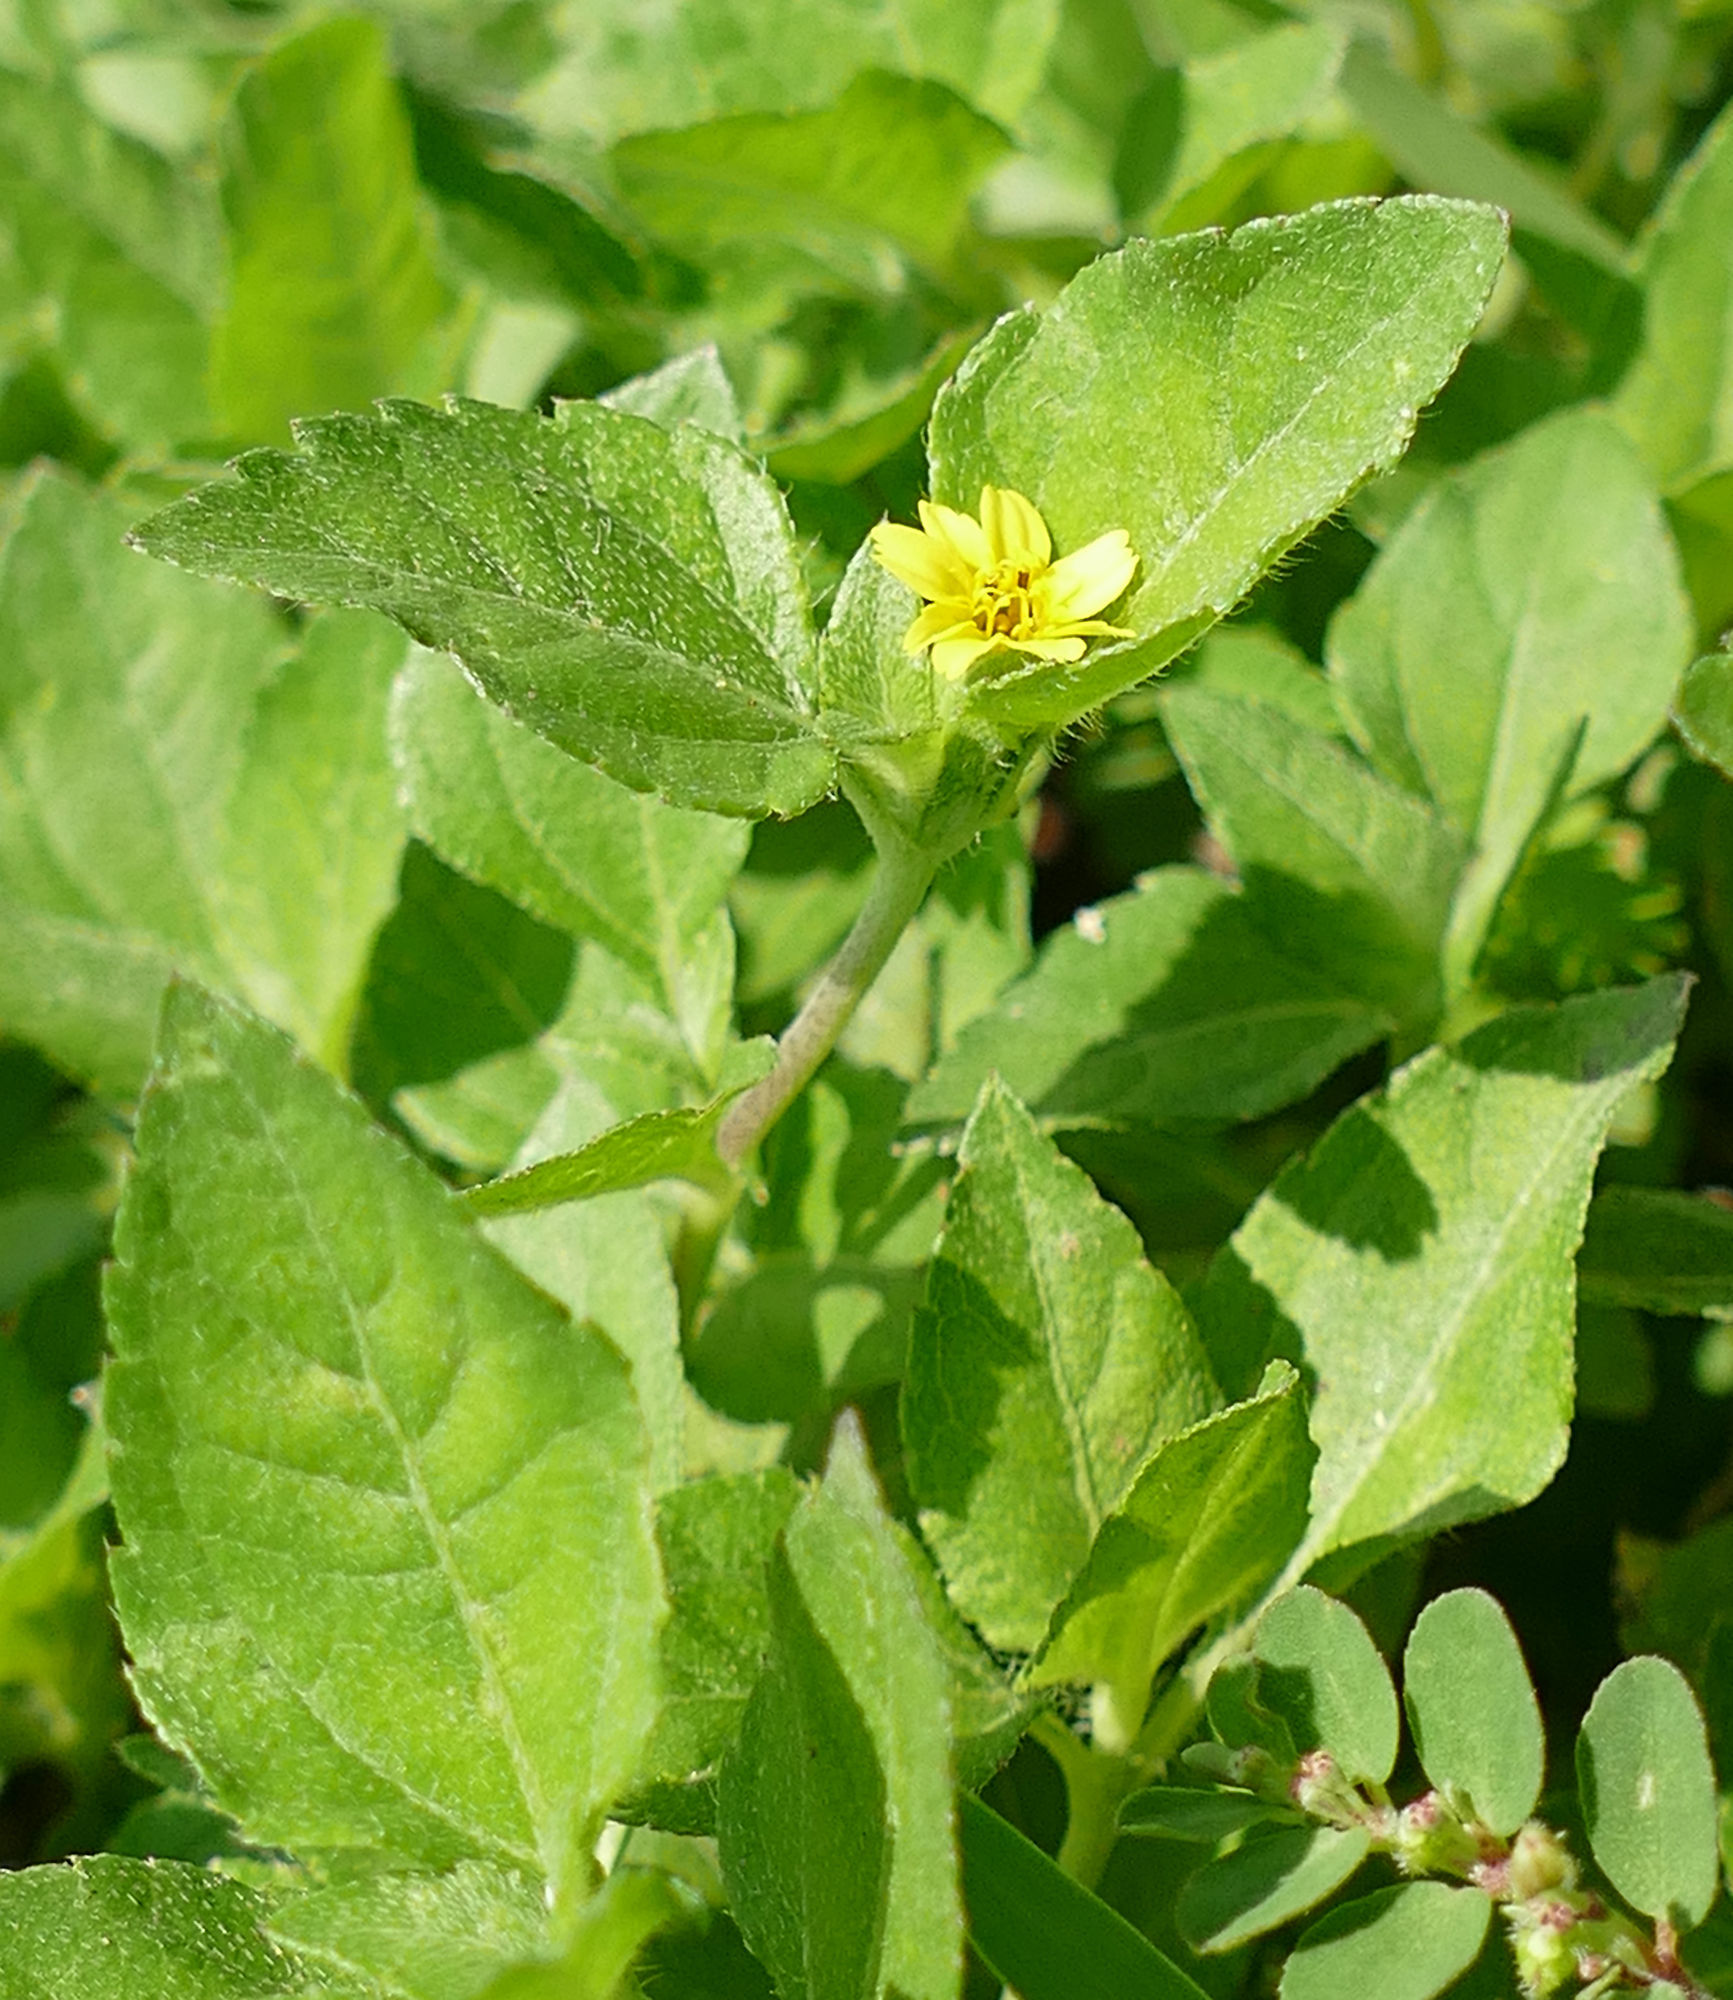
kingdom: Plantae
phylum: Tracheophyta
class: Magnoliopsida
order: Asterales
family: Asteraceae
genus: Calyptocarpus
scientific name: Calyptocarpus vialis
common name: Straggler daisy
